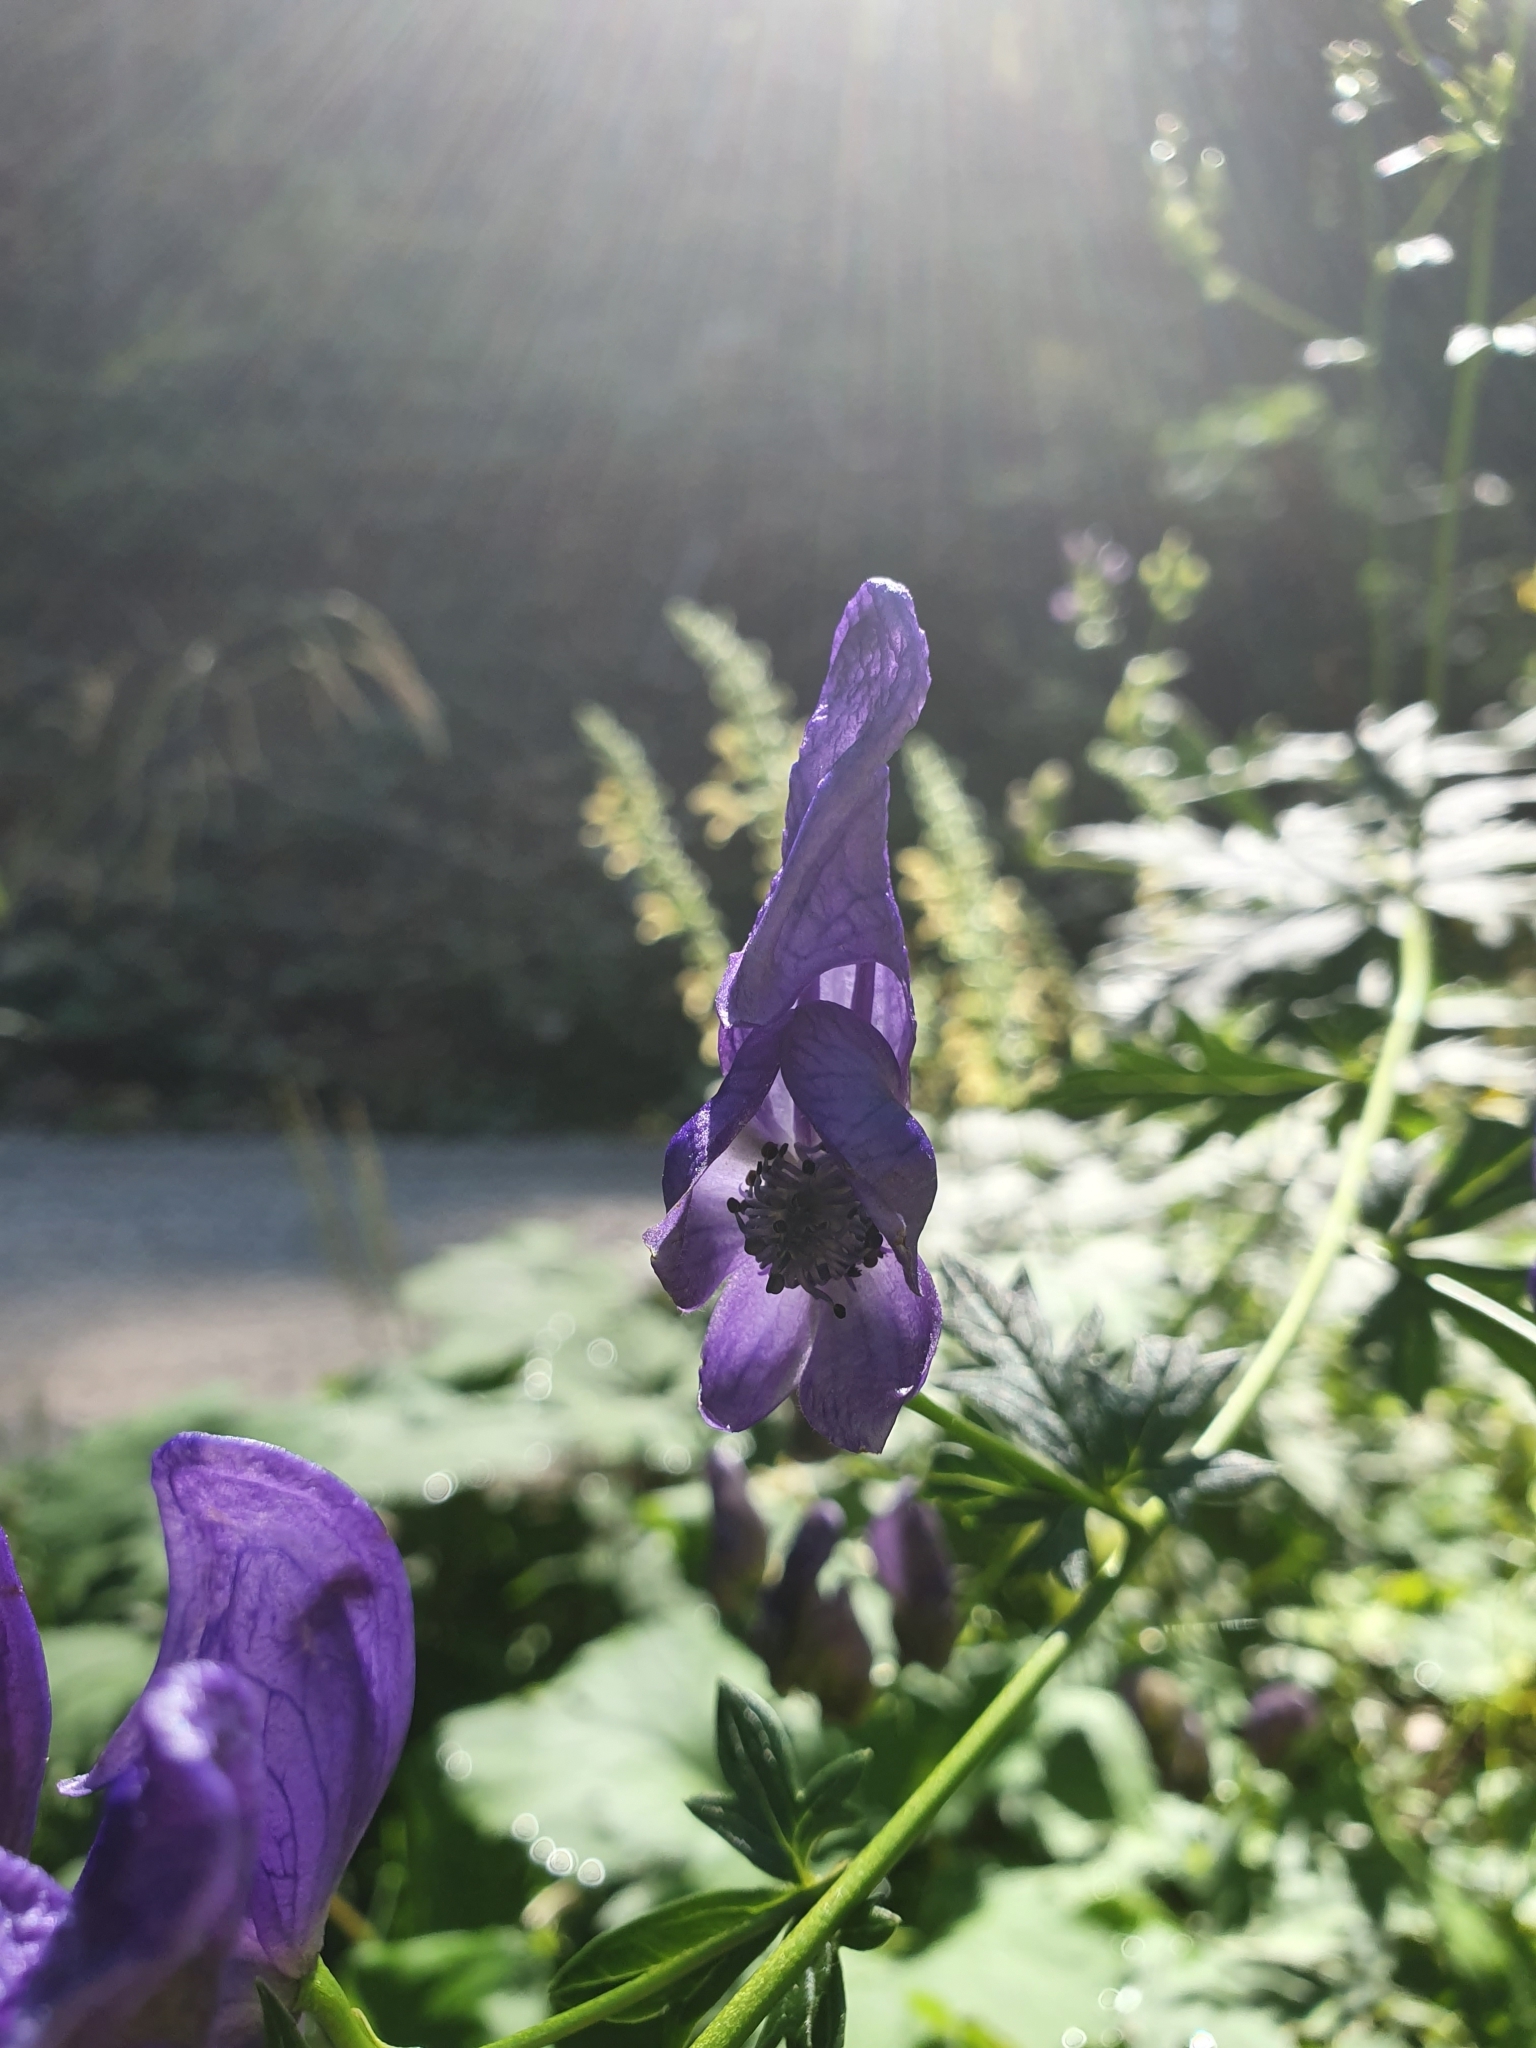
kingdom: Plantae
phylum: Tracheophyta
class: Magnoliopsida
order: Ranunculales
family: Ranunculaceae
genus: Aconitum
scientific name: Aconitum variegatum
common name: Manchurian monkshood
